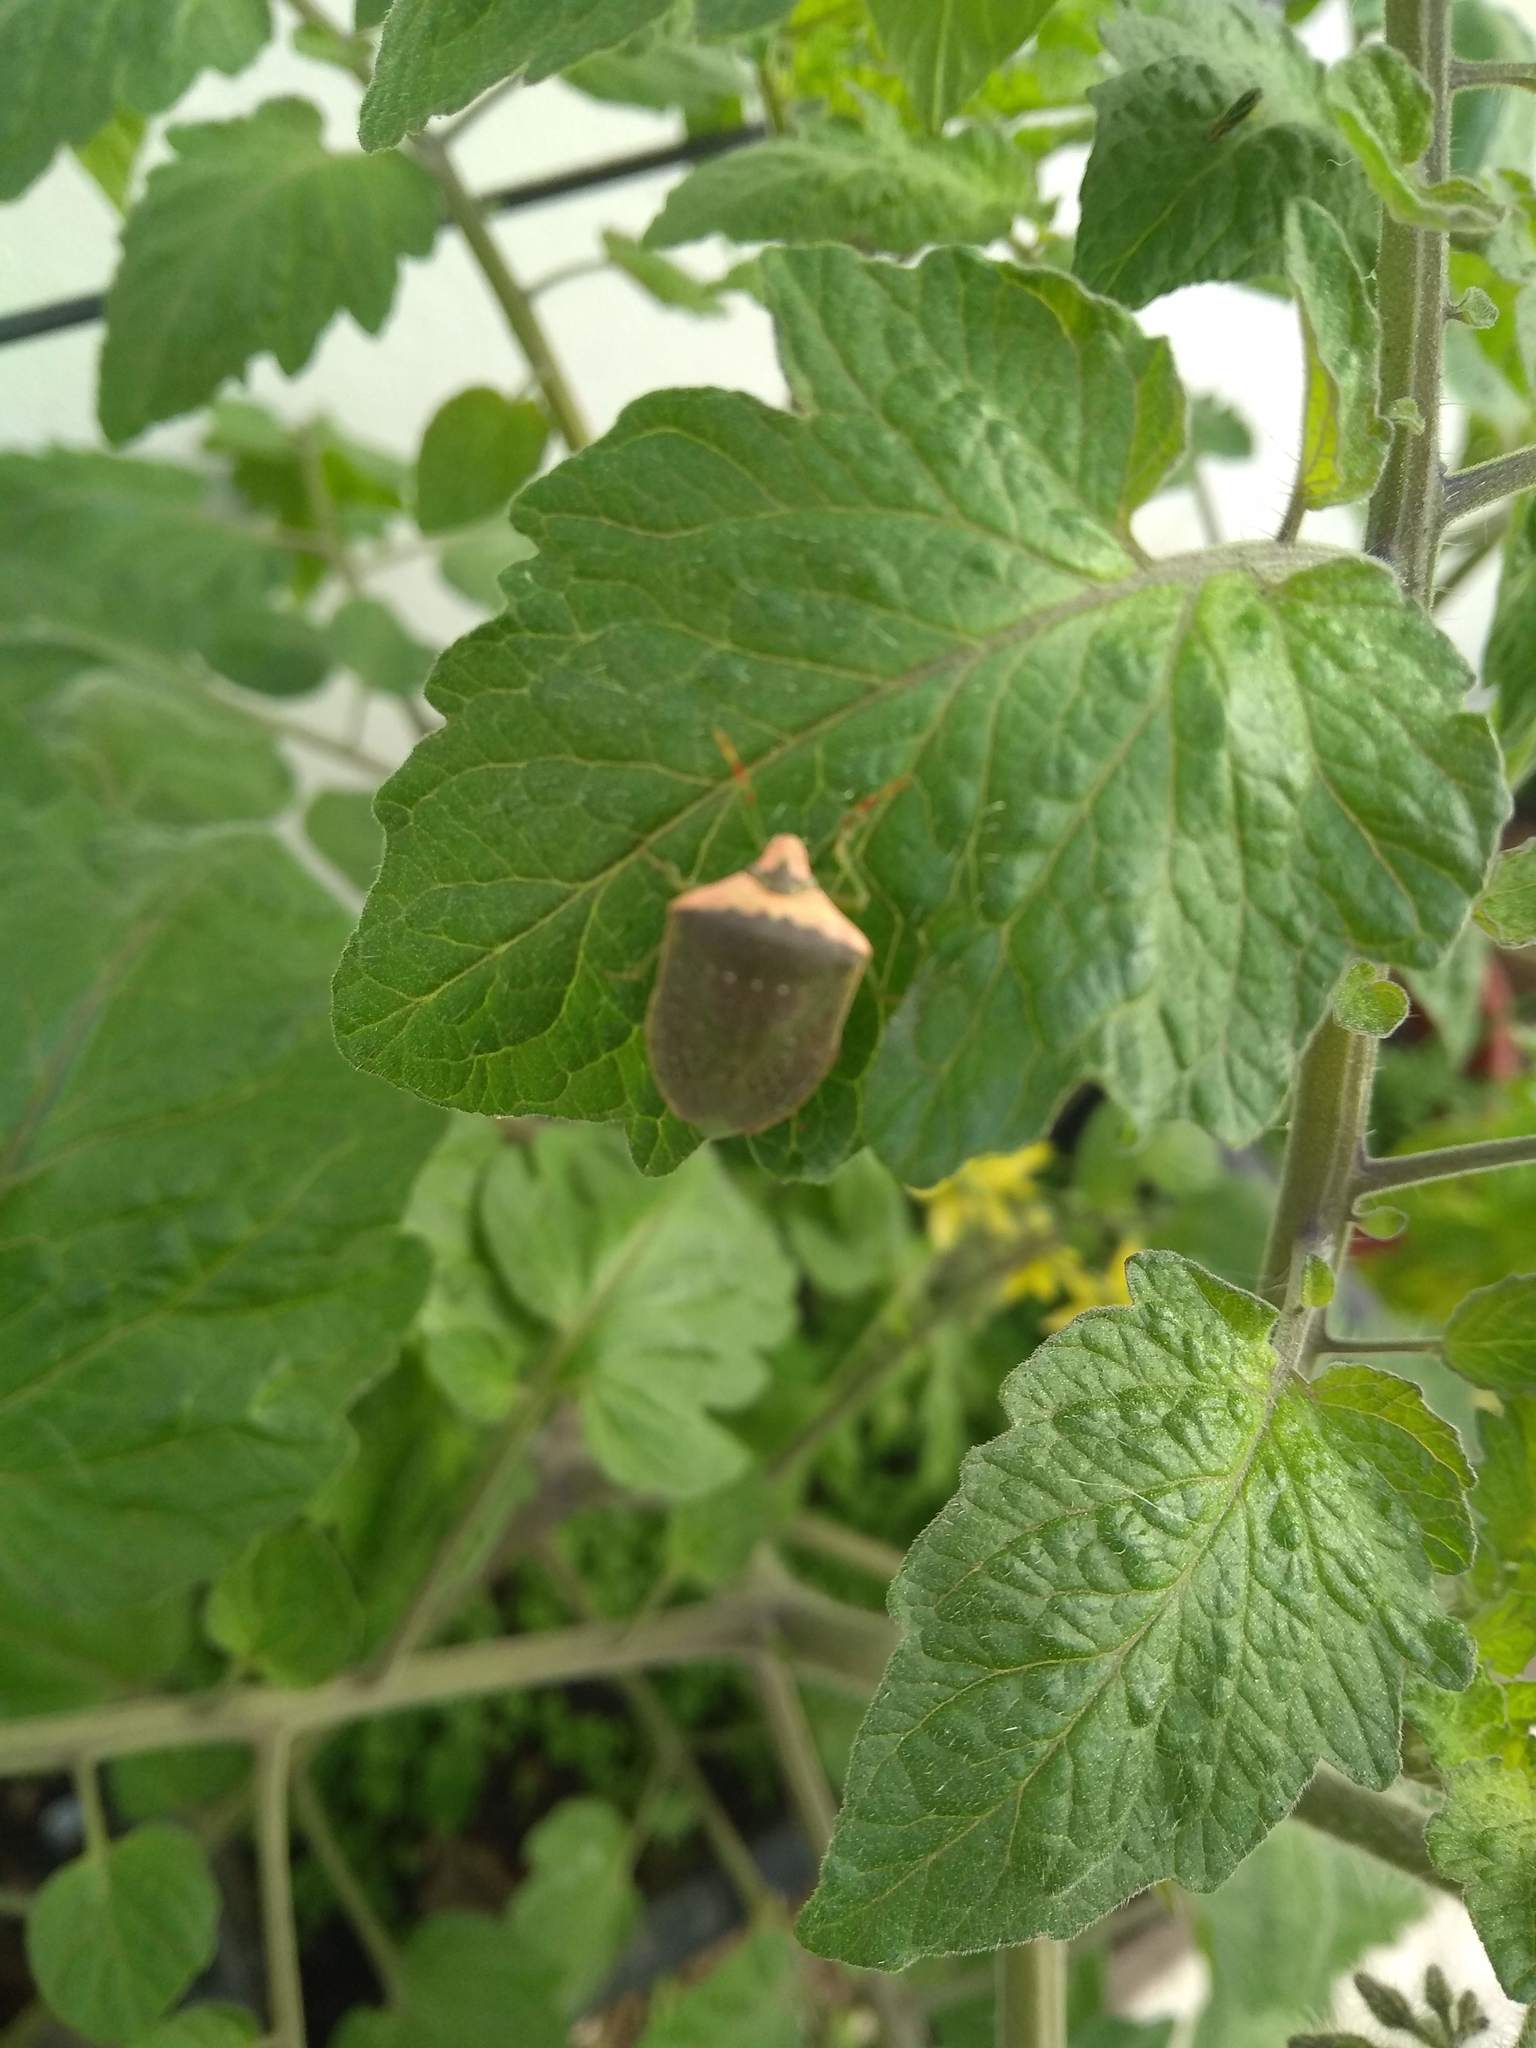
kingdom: Animalia
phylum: Arthropoda
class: Insecta
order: Hemiptera
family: Pentatomidae
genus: Nezara
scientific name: Nezara viridula
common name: Southern green stink bug
